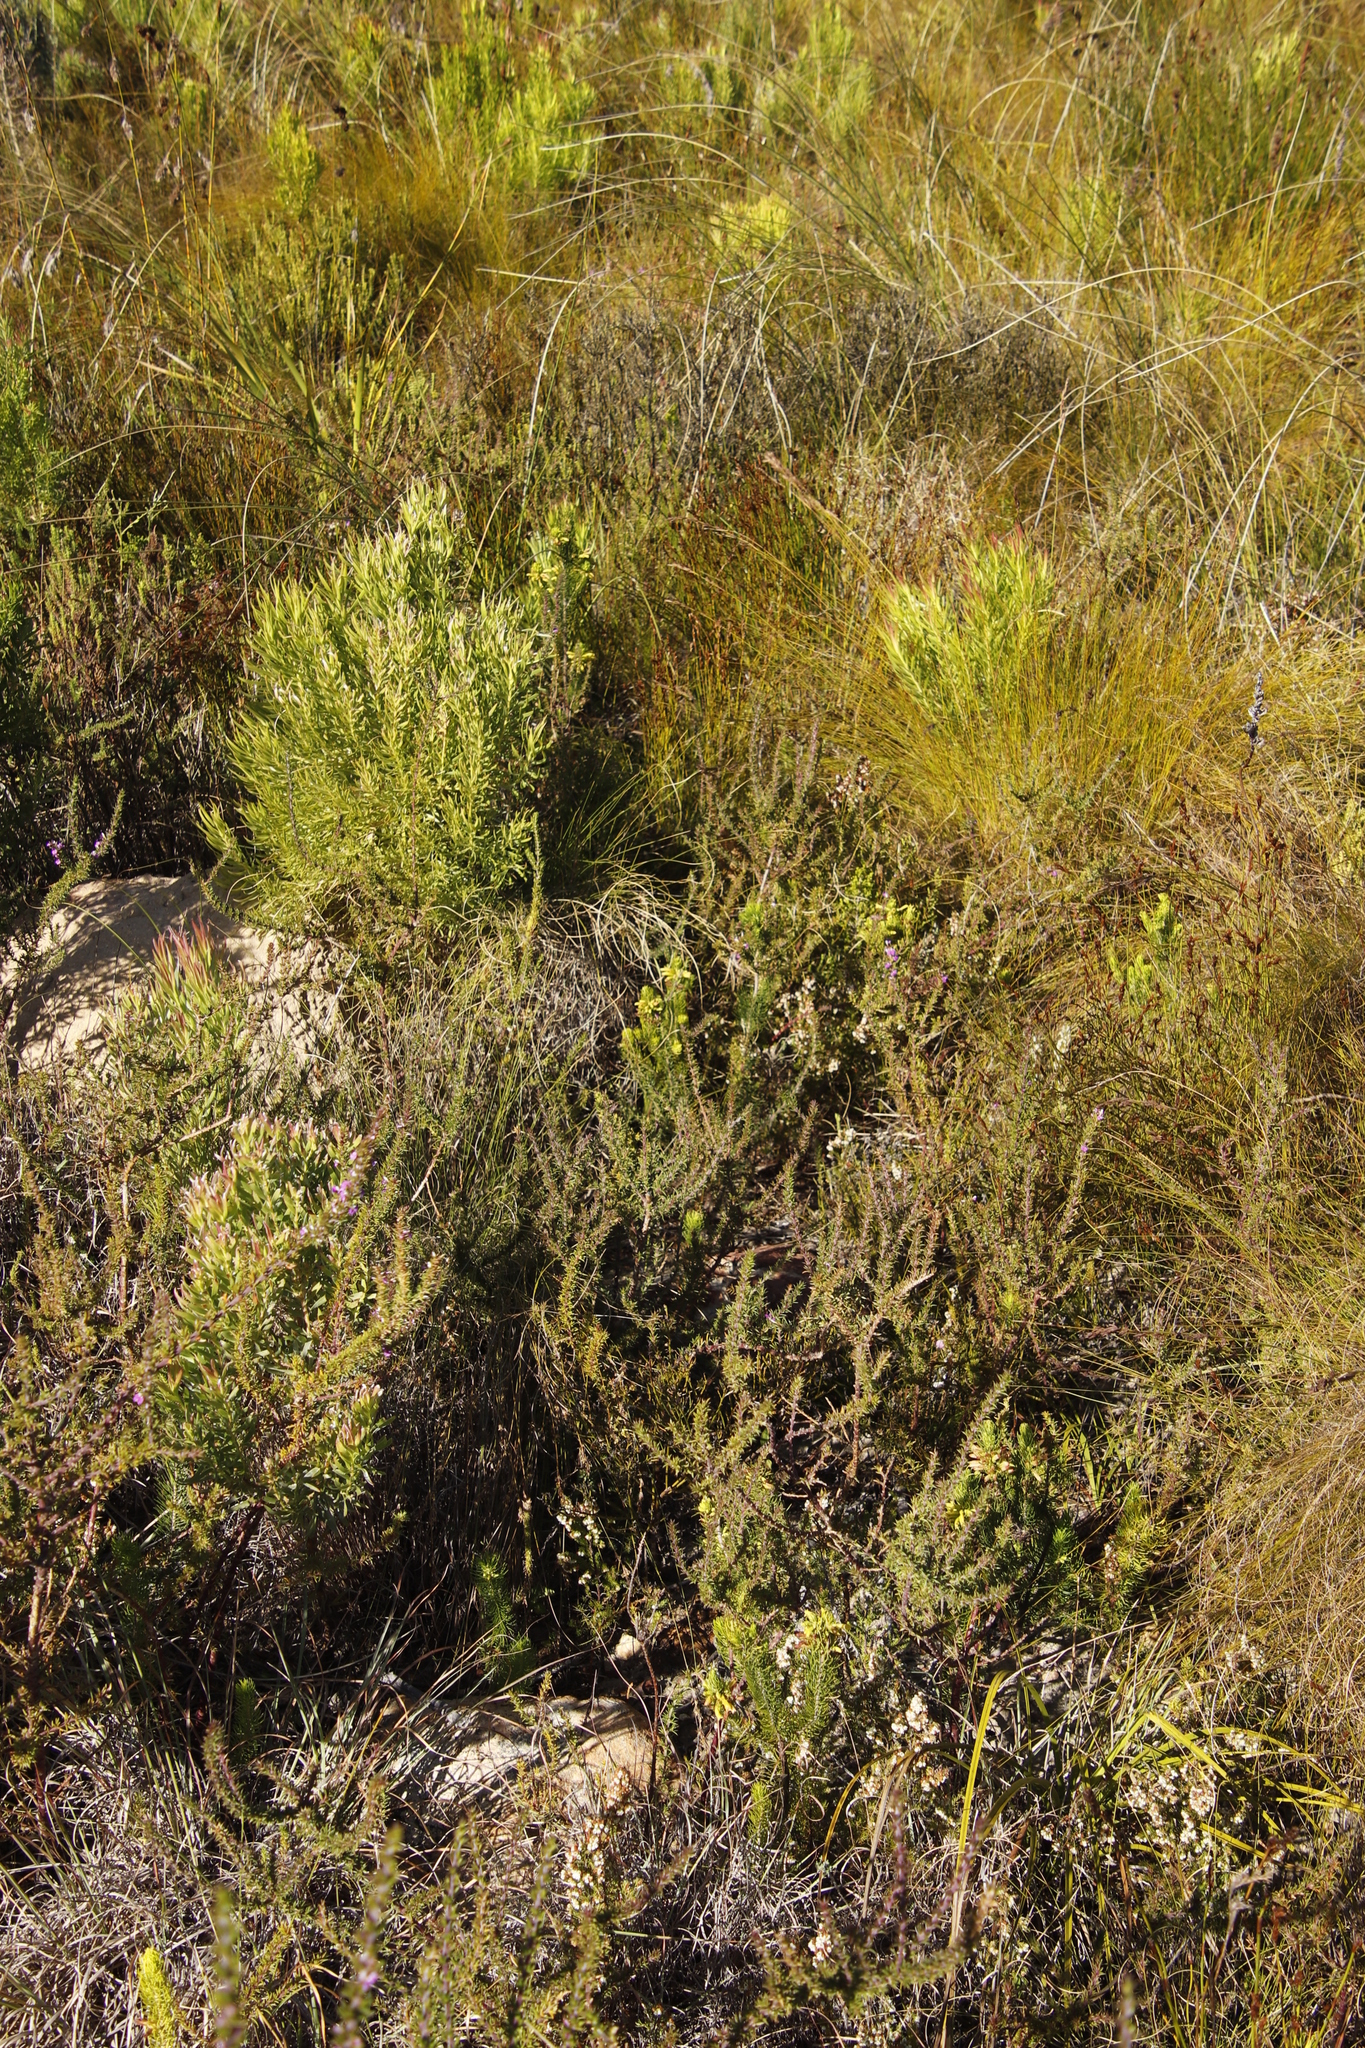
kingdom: Plantae
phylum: Tracheophyta
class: Magnoliopsida
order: Ericales
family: Ericaceae
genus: Erica
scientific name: Erica viscaria
